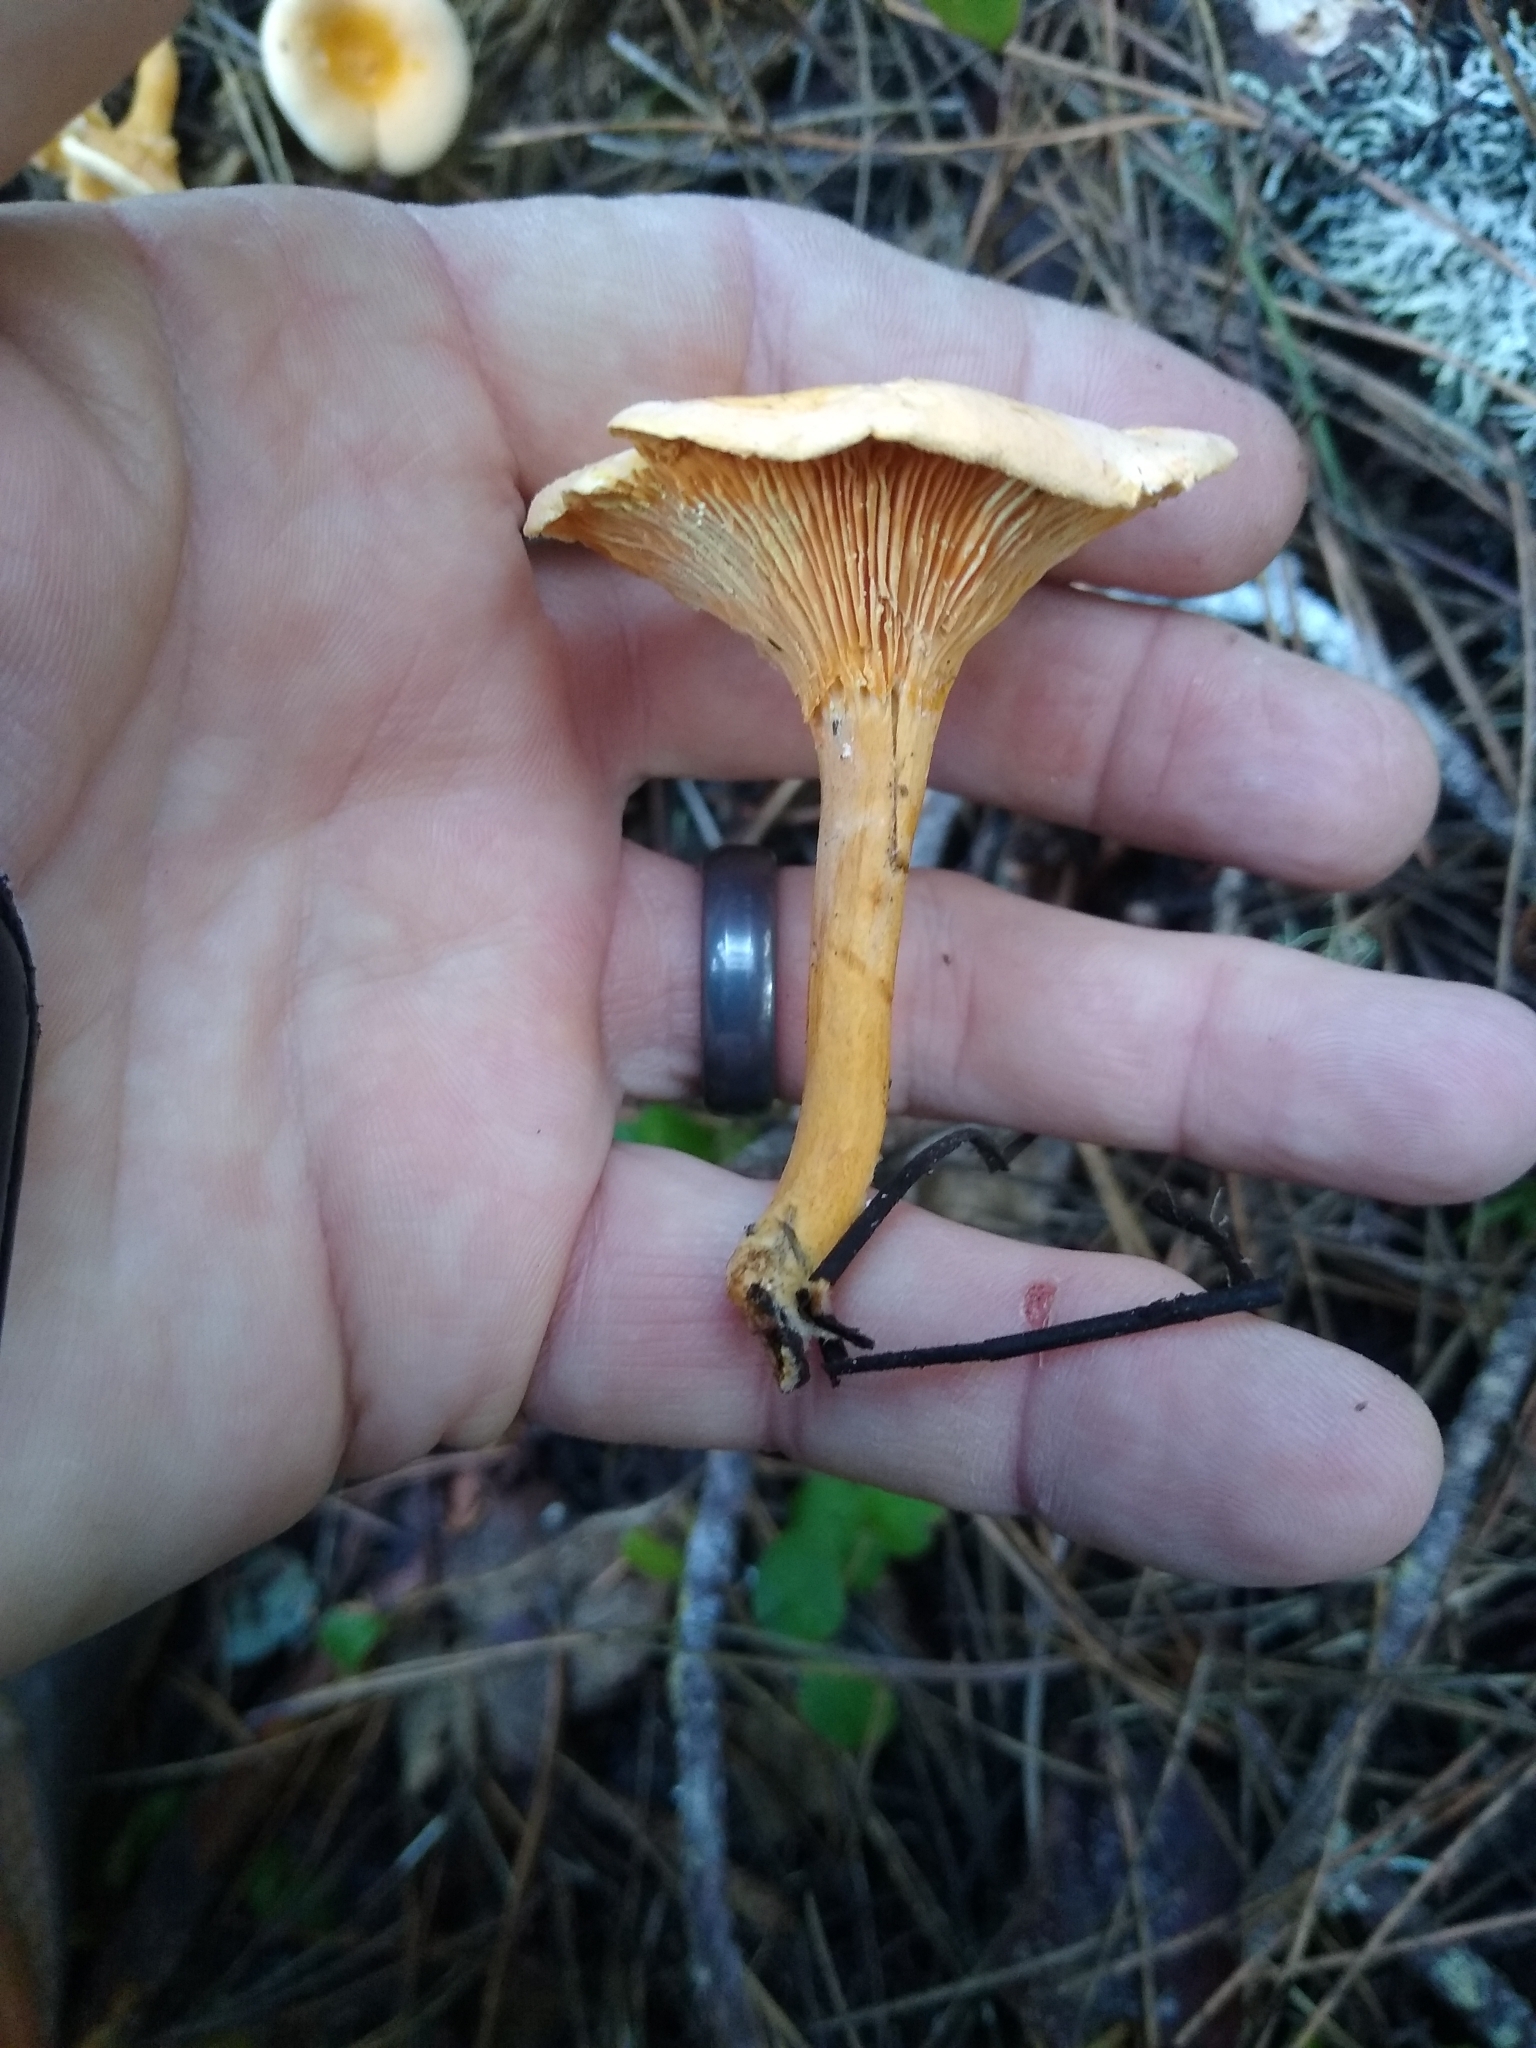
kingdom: Fungi
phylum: Basidiomycota
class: Agaricomycetes
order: Boletales
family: Hygrophoropsidaceae
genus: Hygrophoropsis
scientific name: Hygrophoropsis aurantiaca
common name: False chanterelle
